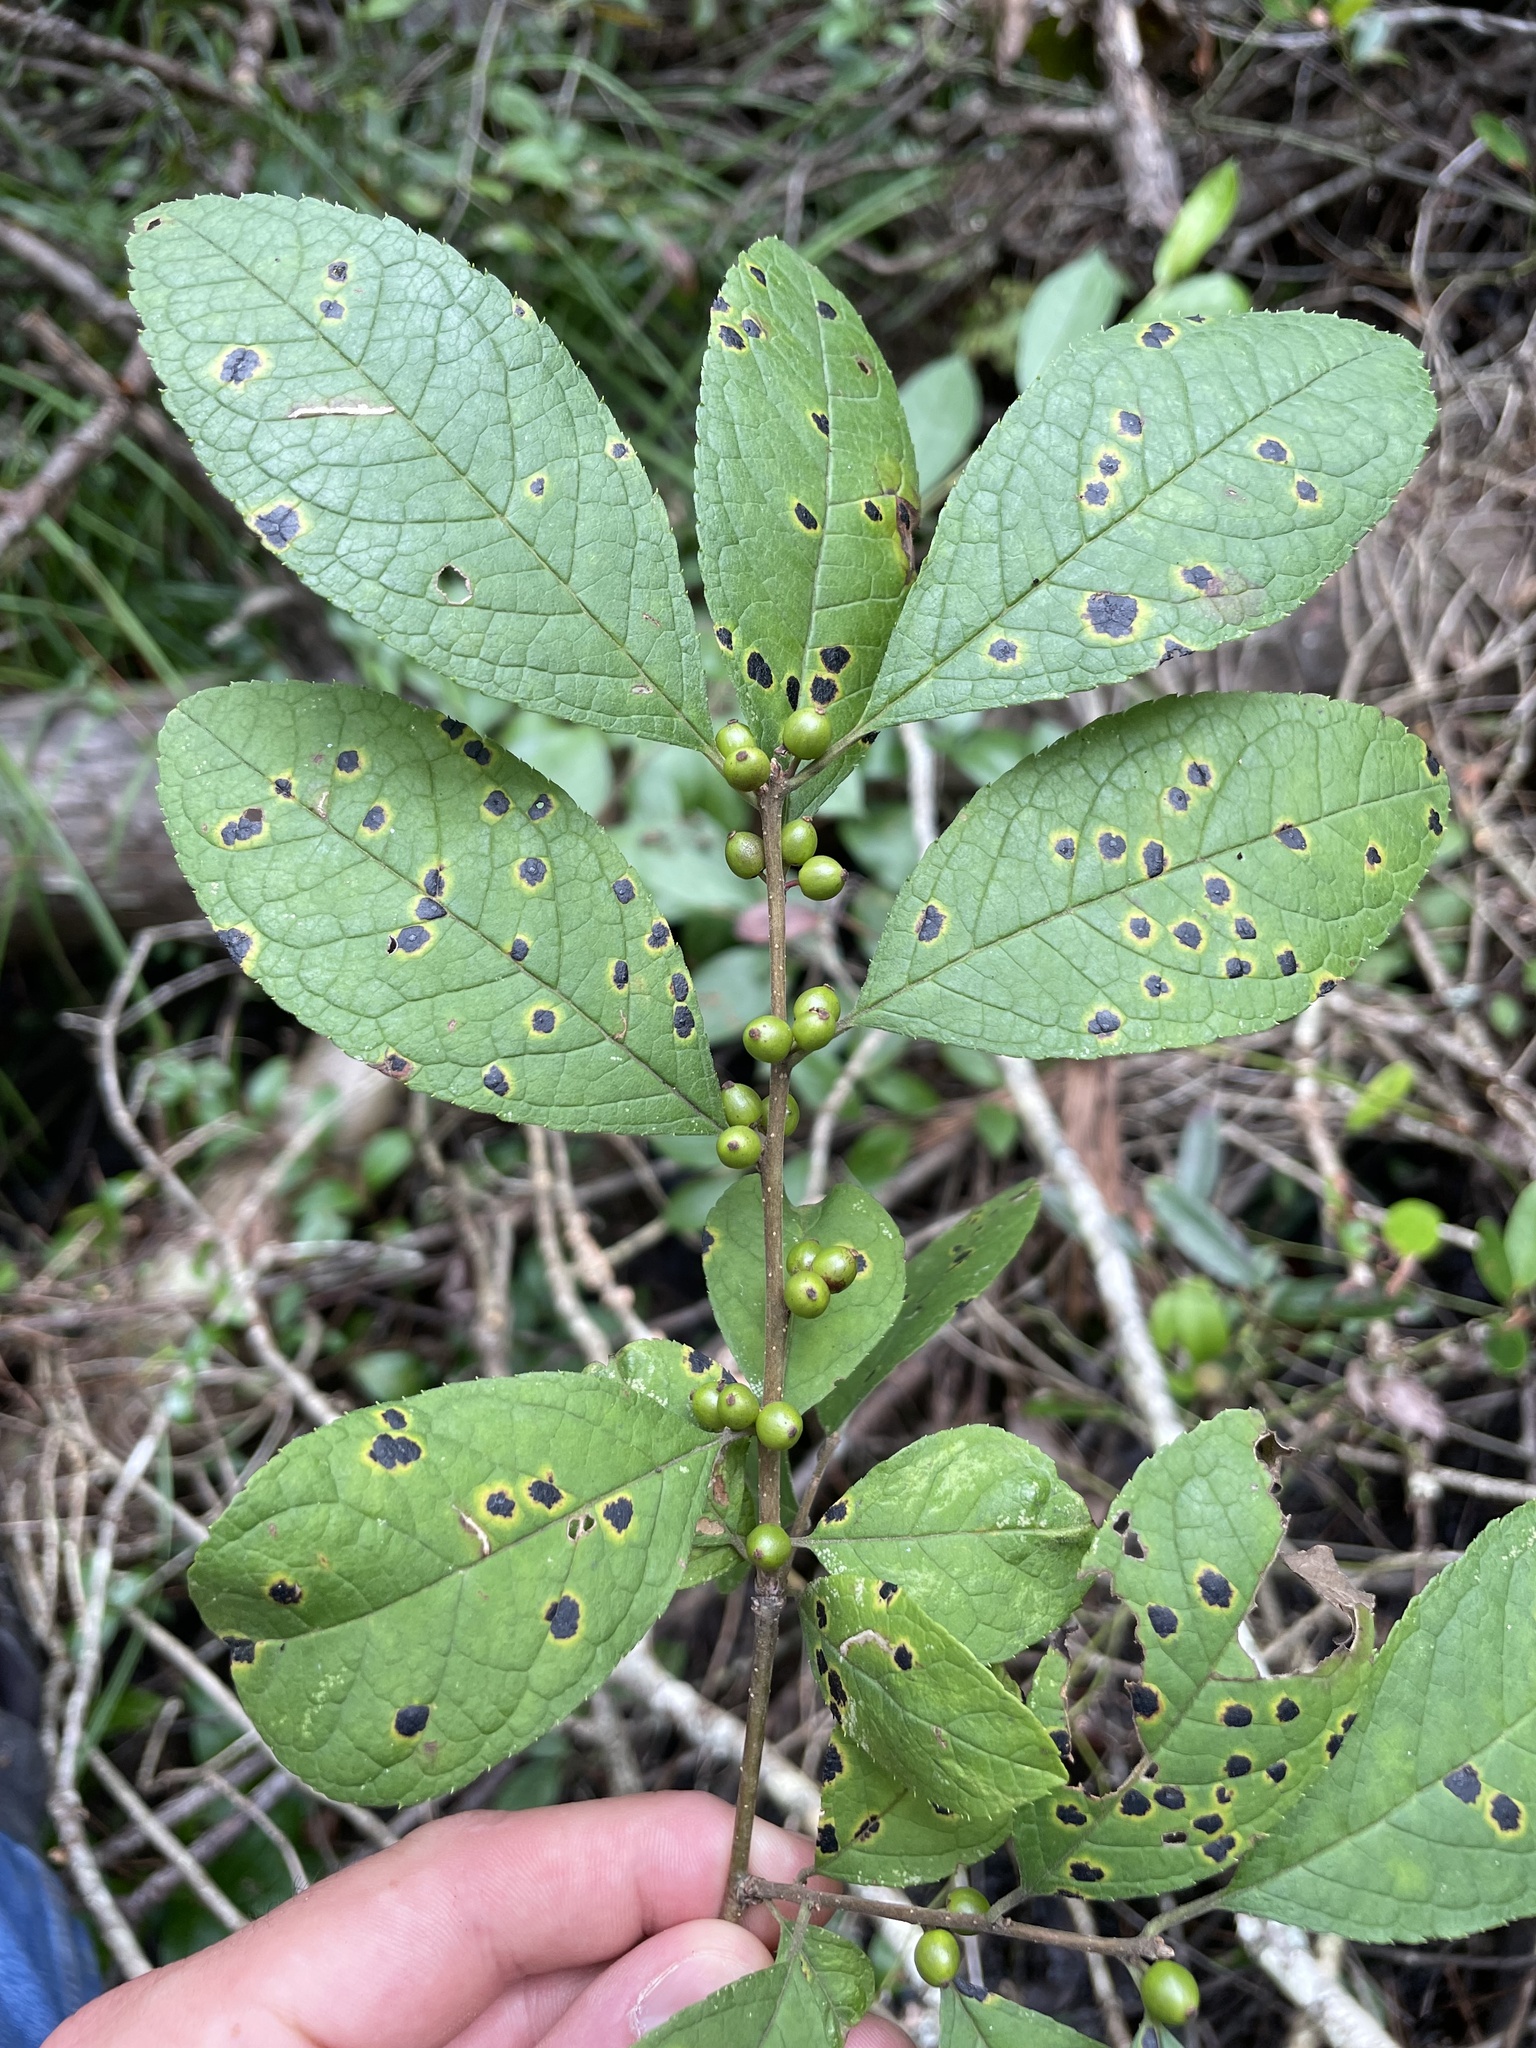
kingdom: Plantae
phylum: Tracheophyta
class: Magnoliopsida
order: Aquifoliales
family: Aquifoliaceae
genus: Ilex
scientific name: Ilex verticillata
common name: Virginia winterberry
